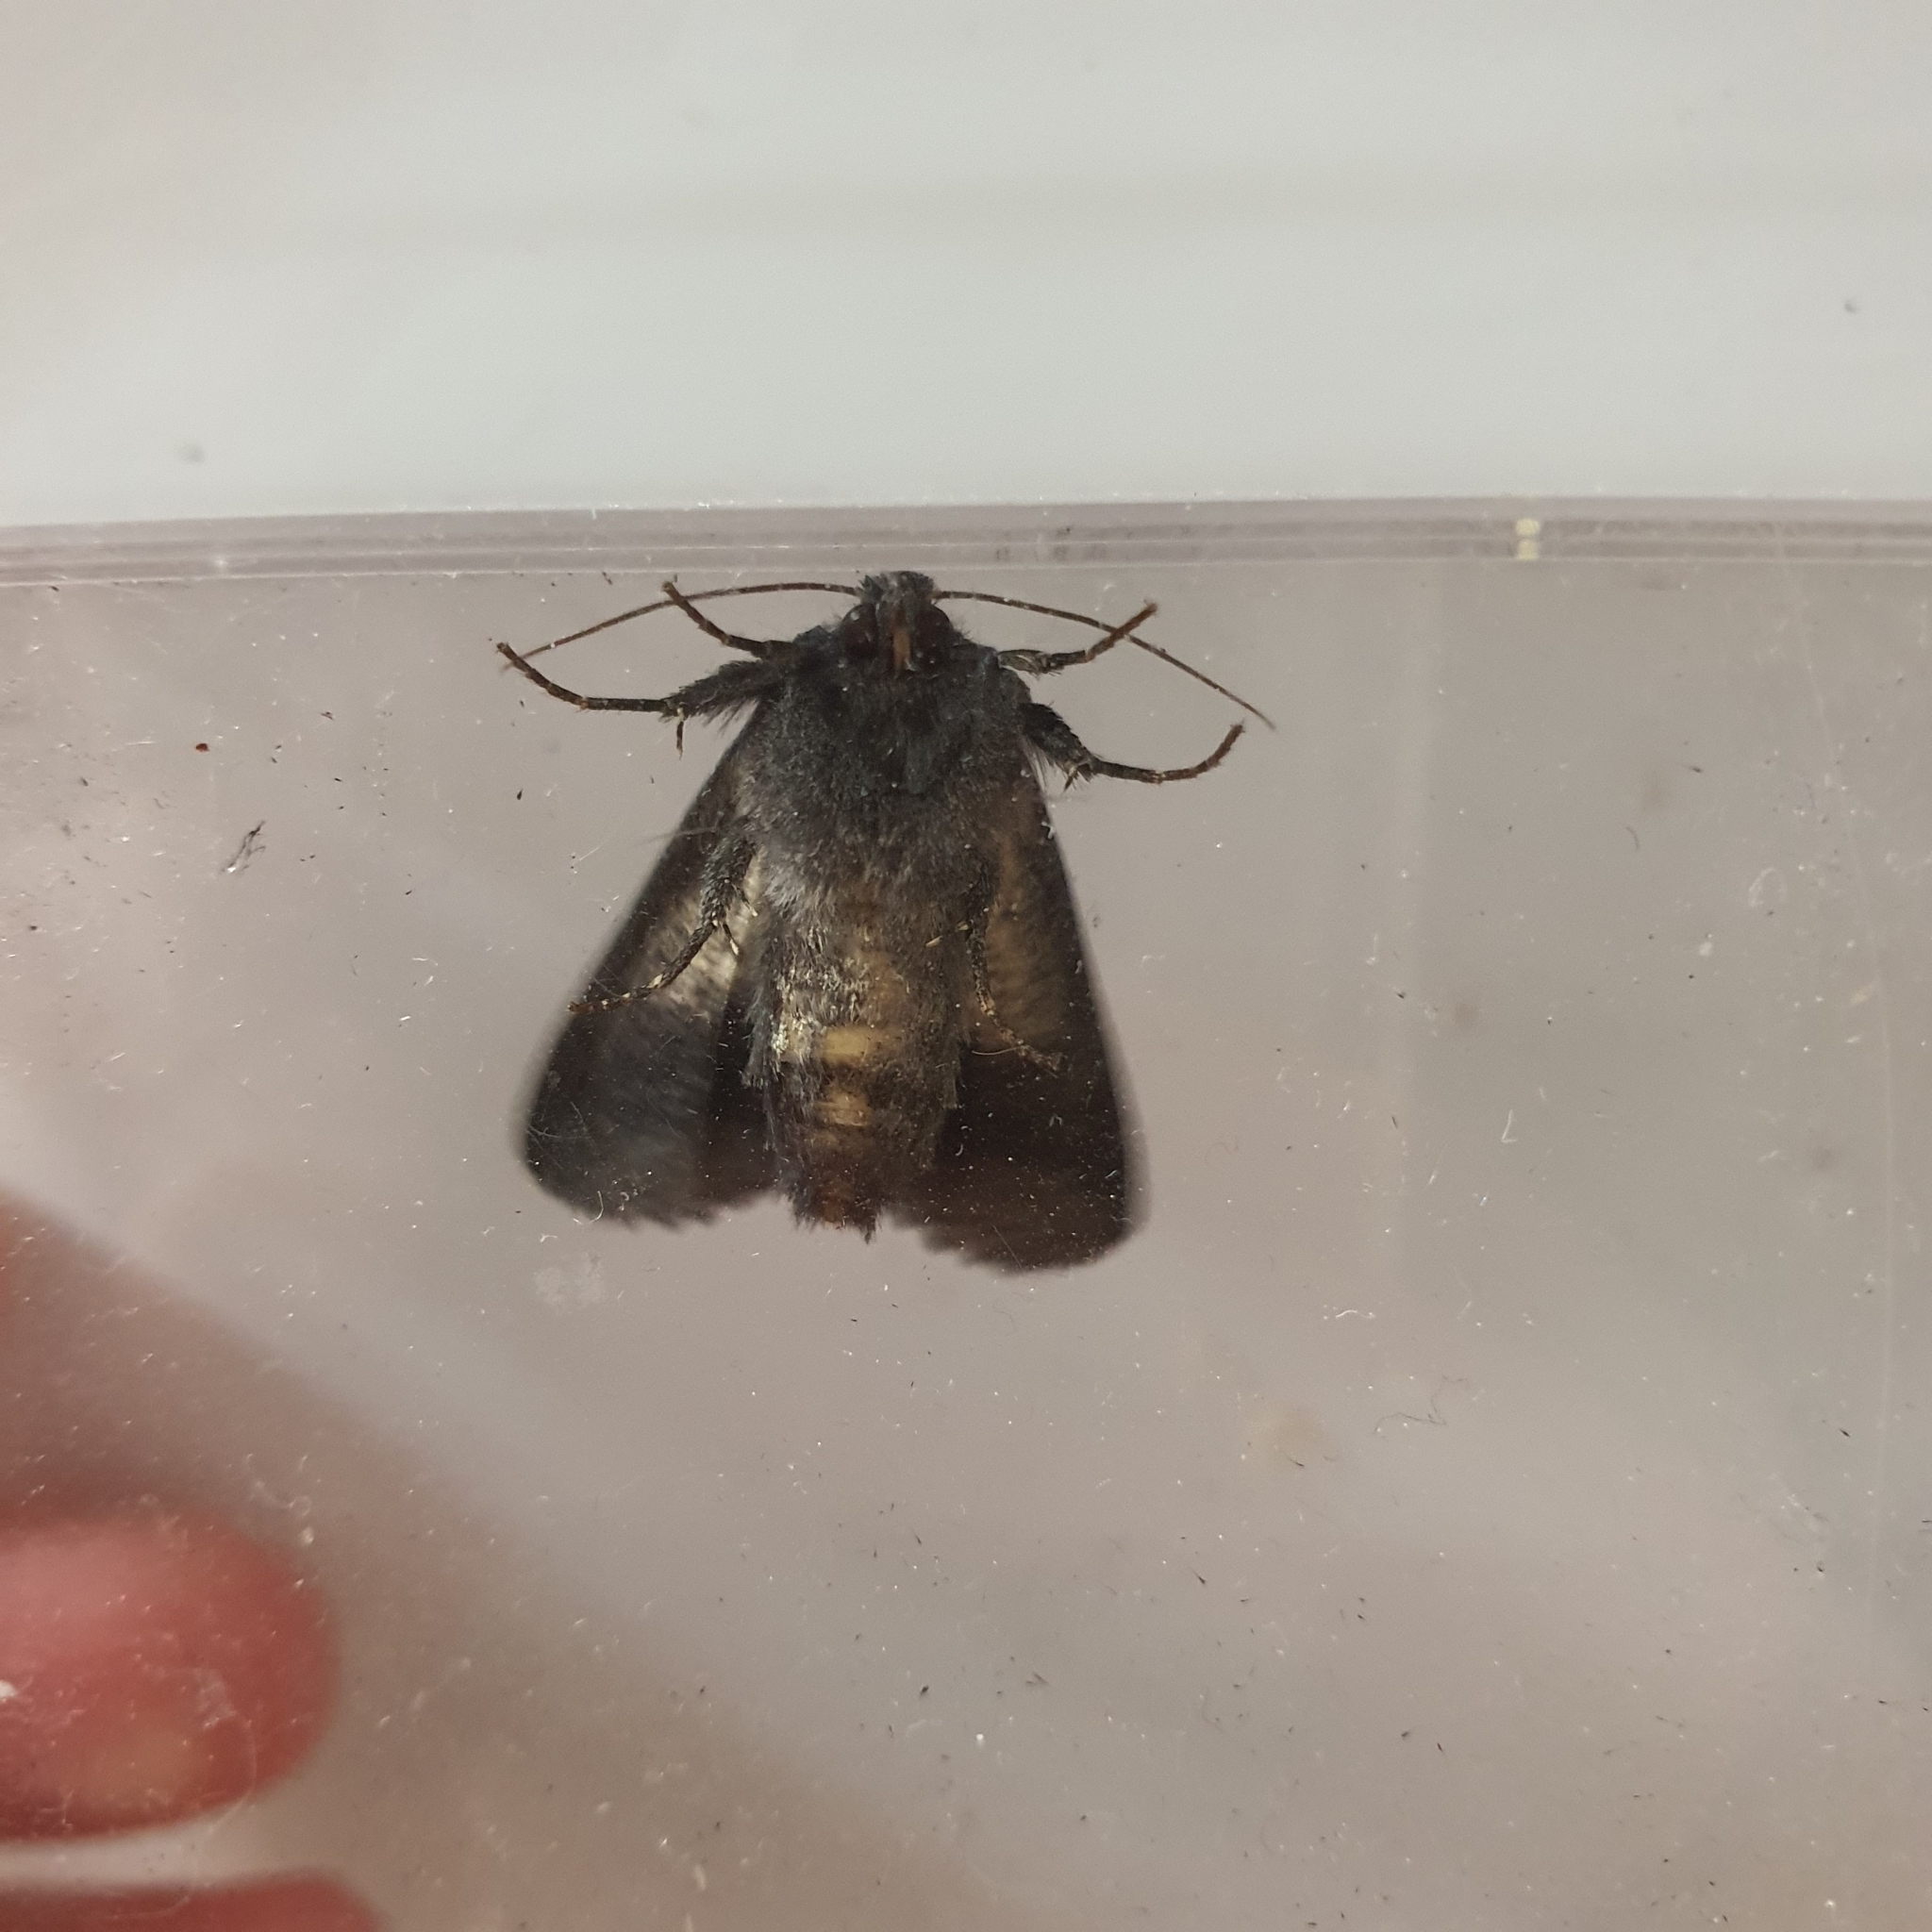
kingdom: Animalia
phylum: Arthropoda
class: Insecta
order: Lepidoptera
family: Noctuidae
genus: Neumichtis
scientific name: Neumichtis nigerrima
